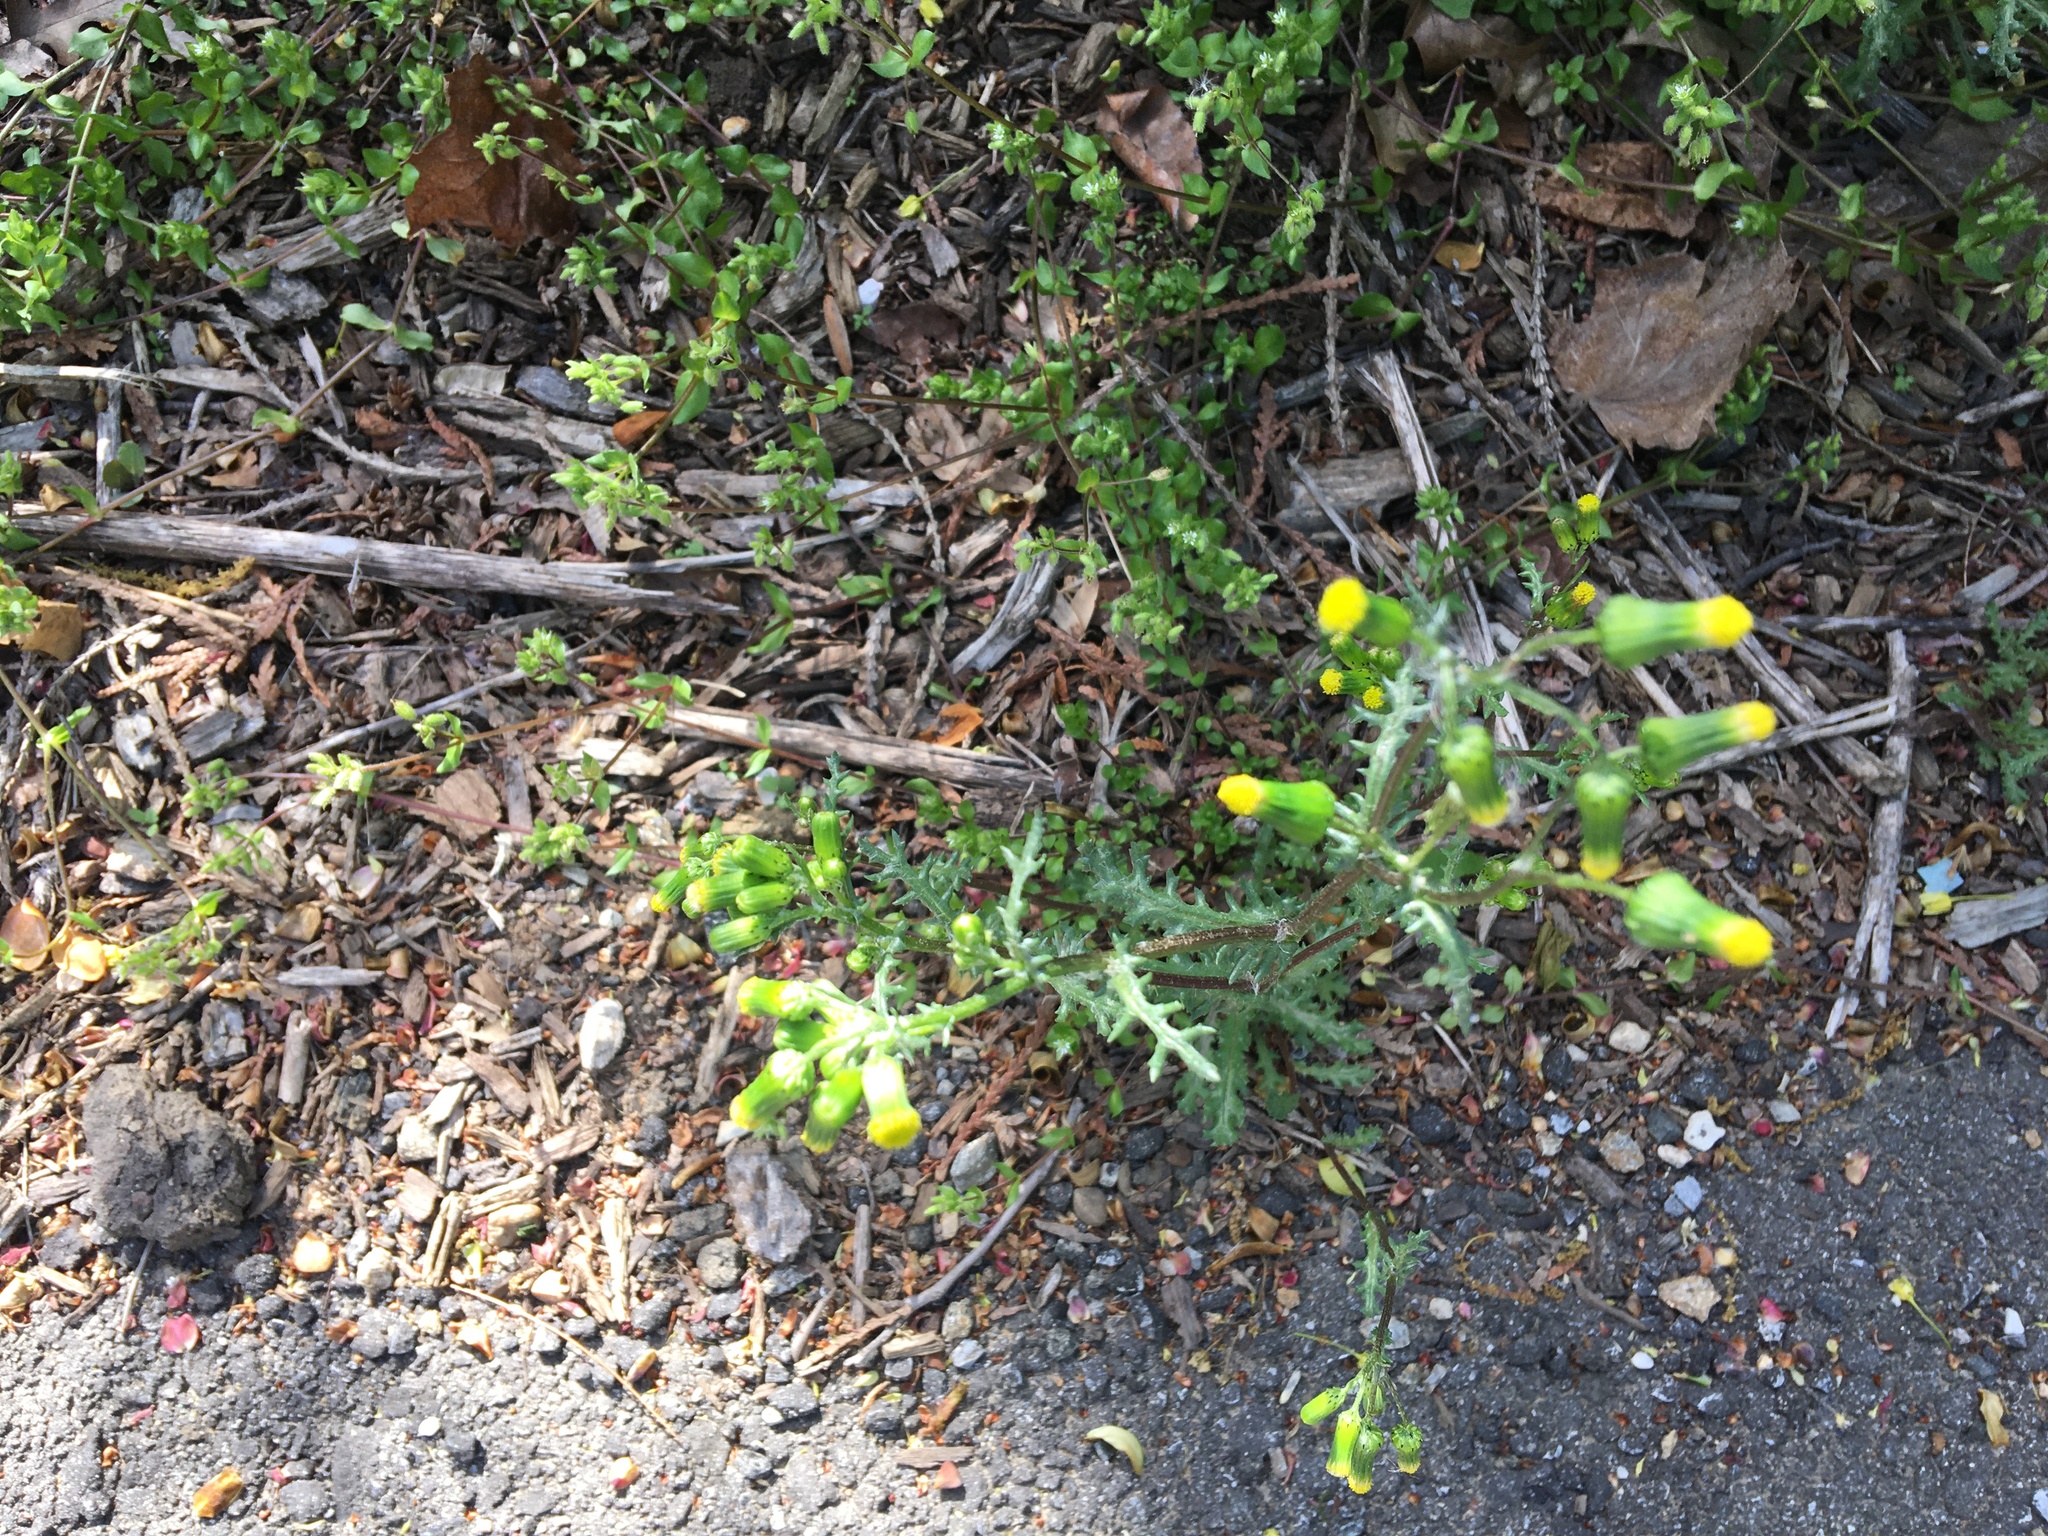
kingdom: Plantae
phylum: Tracheophyta
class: Magnoliopsida
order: Asterales
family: Asteraceae
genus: Senecio
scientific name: Senecio vulgaris
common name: Old-man-in-the-spring
